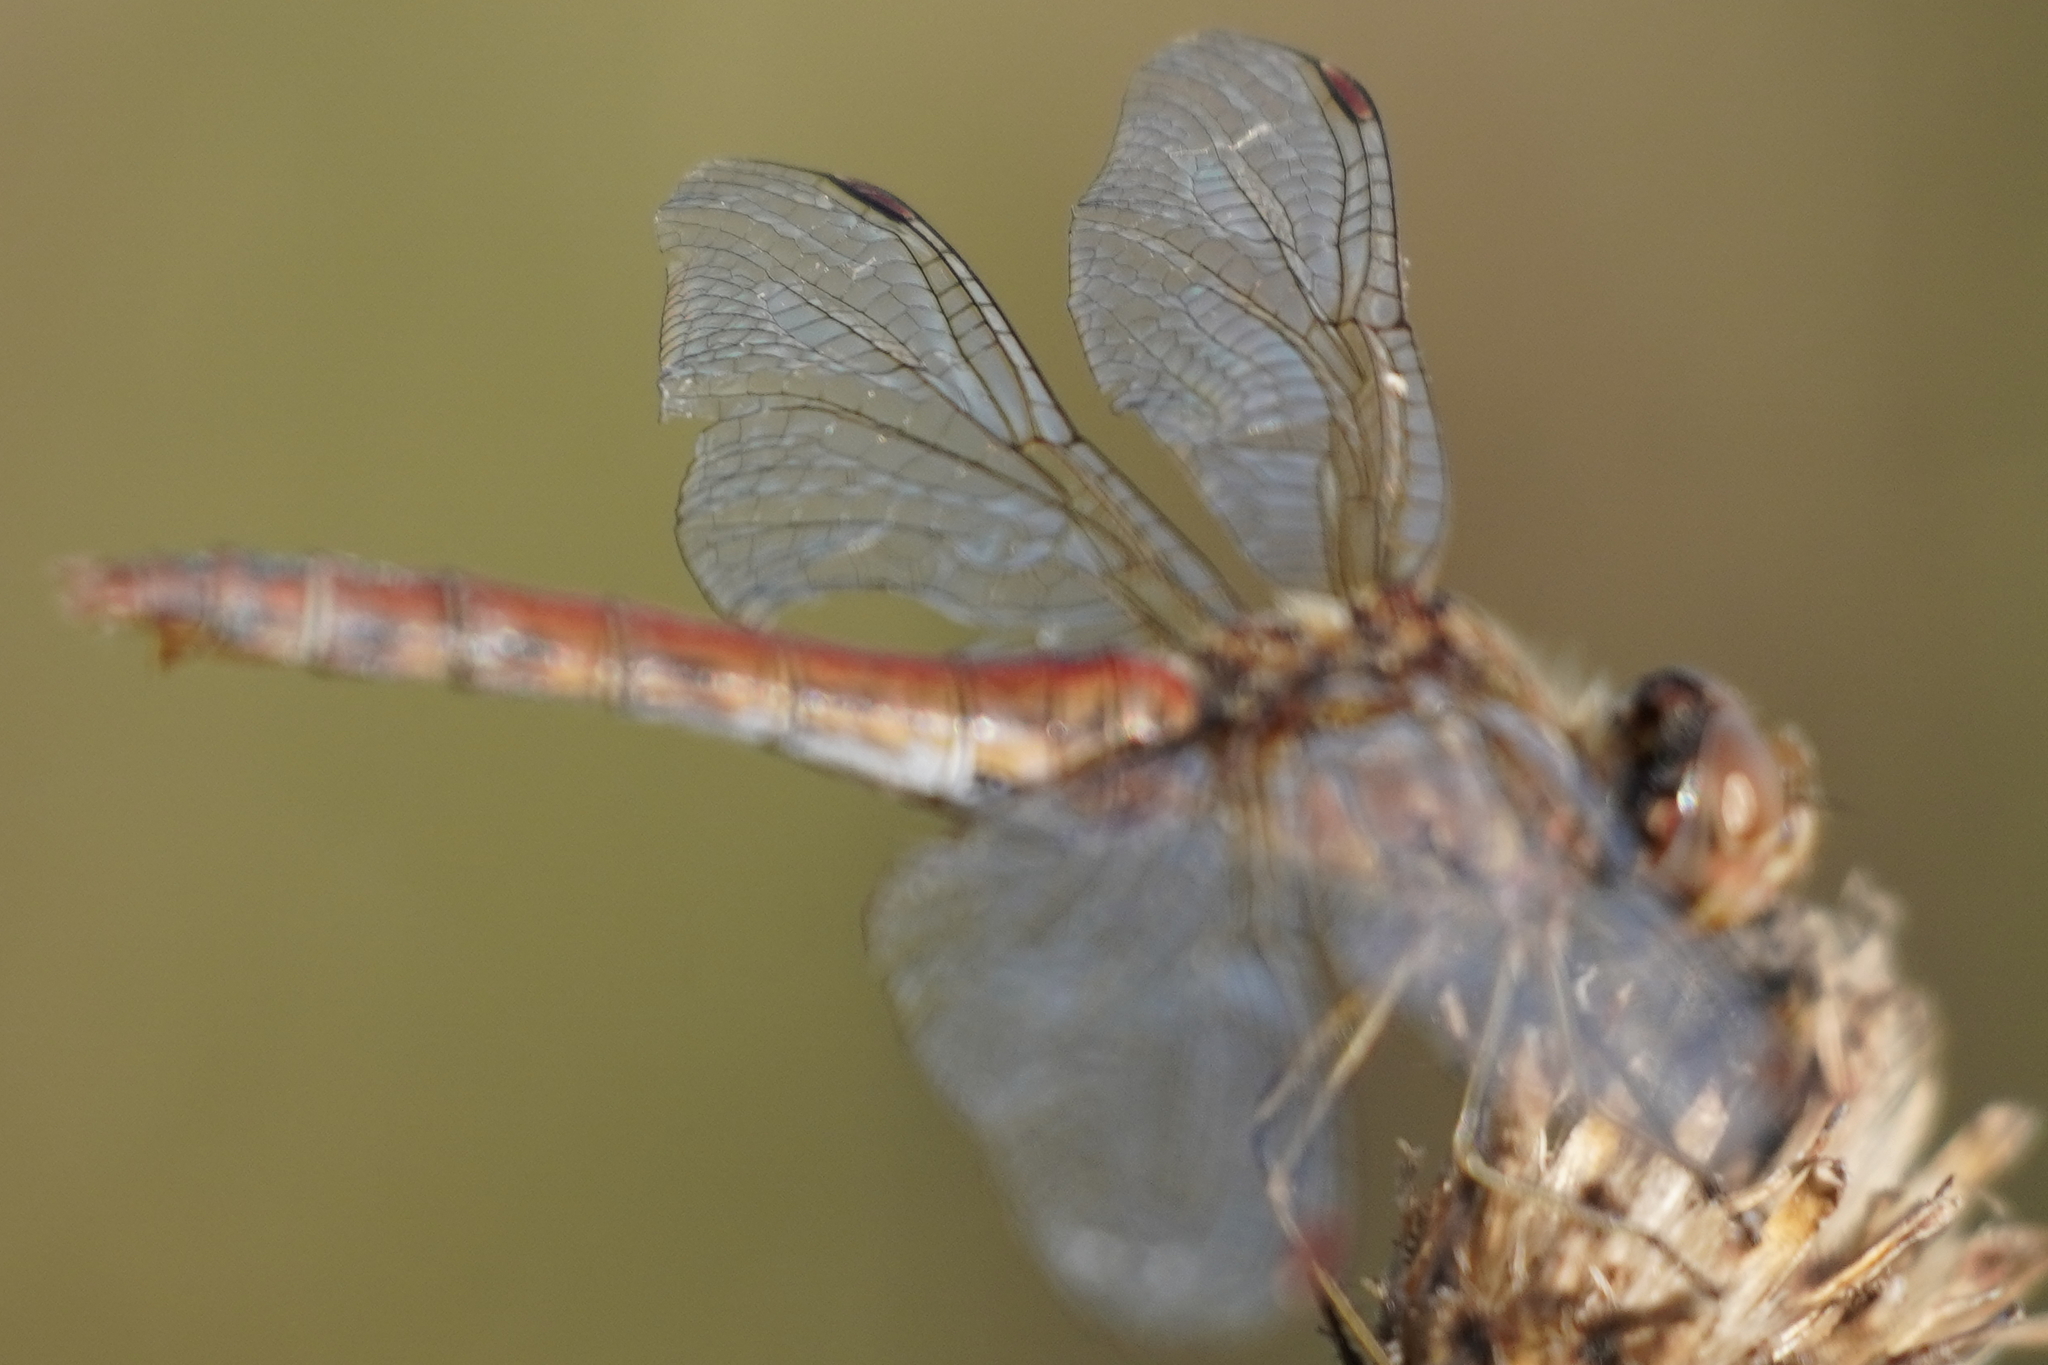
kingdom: Animalia
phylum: Arthropoda
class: Insecta
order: Odonata
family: Libellulidae
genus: Sympetrum
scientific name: Sympetrum vulgatum
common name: Vagrant darter
